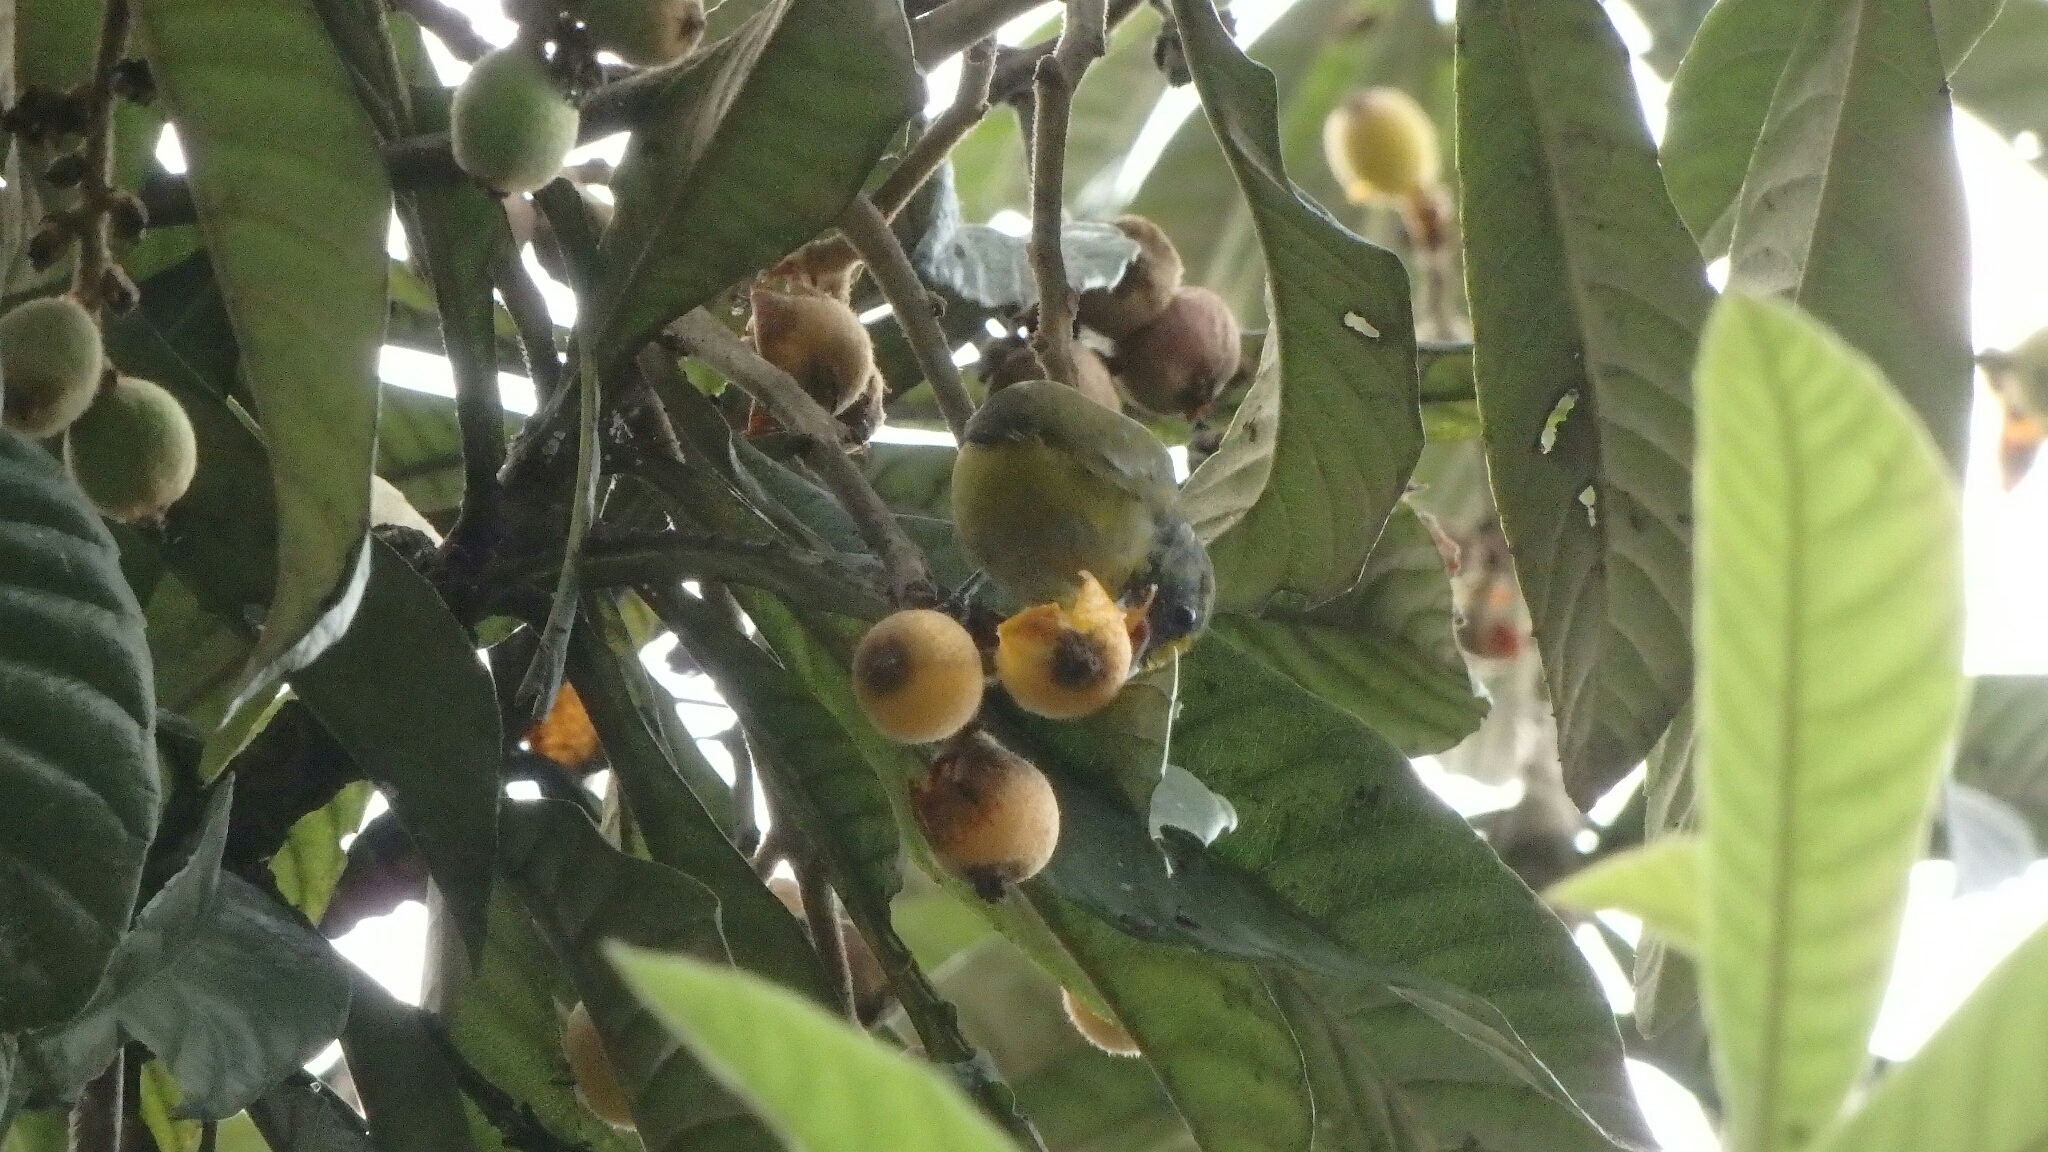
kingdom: Animalia
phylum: Chordata
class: Aves
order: Passeriformes
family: Fringillidae
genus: Euphonia
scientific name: Euphonia hirundinacea
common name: Yellow-throated euphonia
